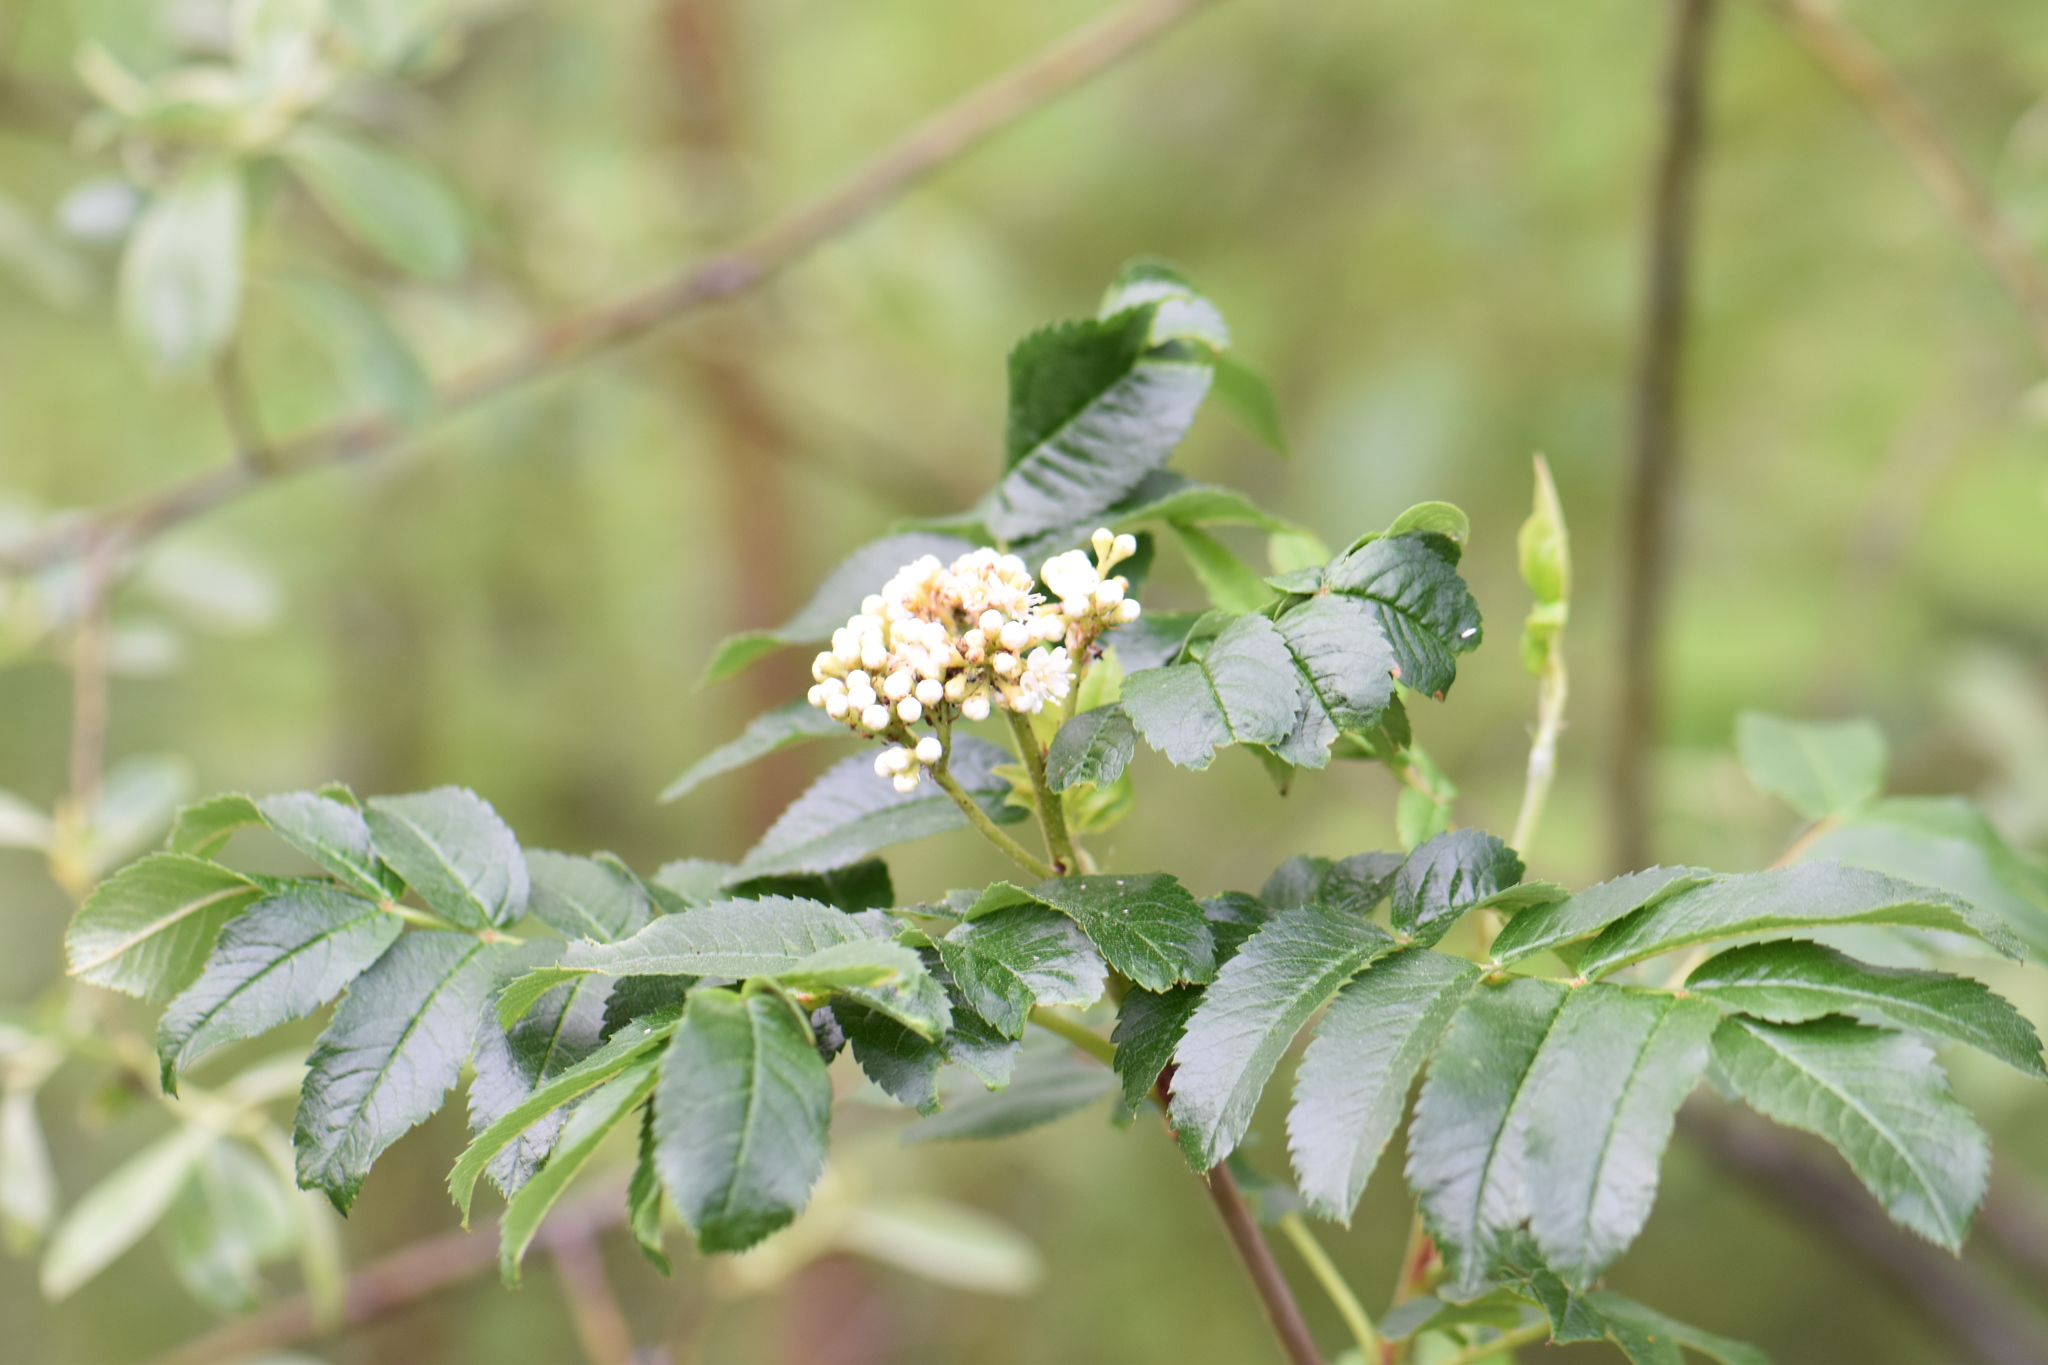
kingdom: Plantae
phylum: Tracheophyta
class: Magnoliopsida
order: Dipsacales
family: Viburnaceae
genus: Sambucus
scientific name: Sambucus racemosa
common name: Red-berried elder
